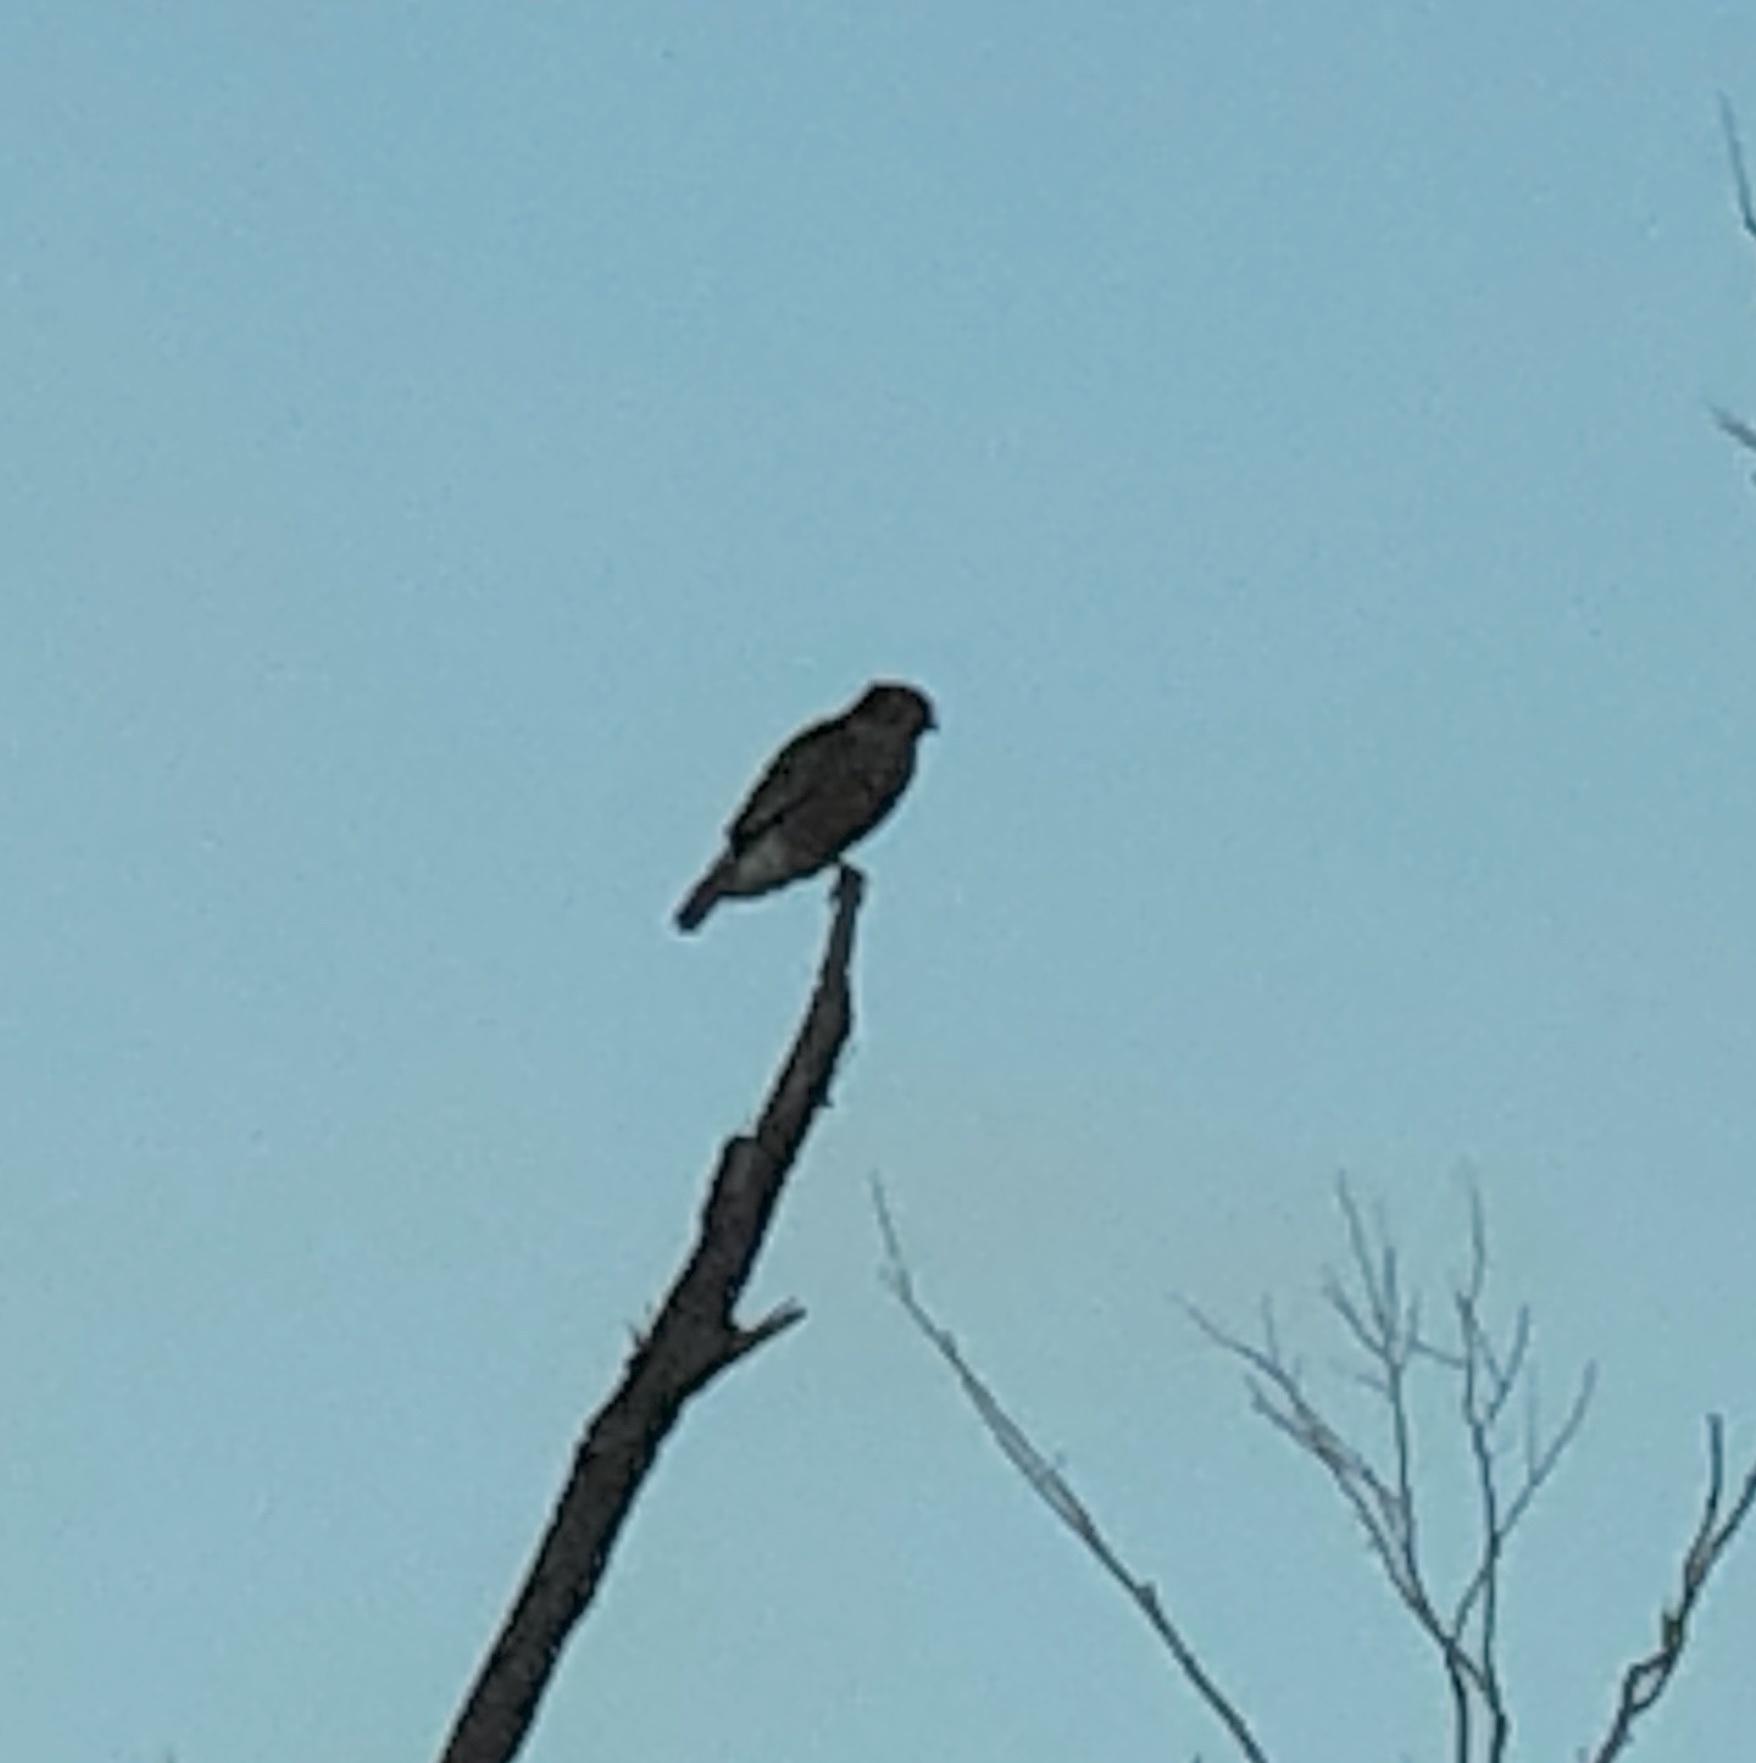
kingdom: Animalia
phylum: Chordata
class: Aves
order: Accipitriformes
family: Accipitridae
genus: Buteo
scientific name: Buteo lineatus
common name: Red-shouldered hawk
